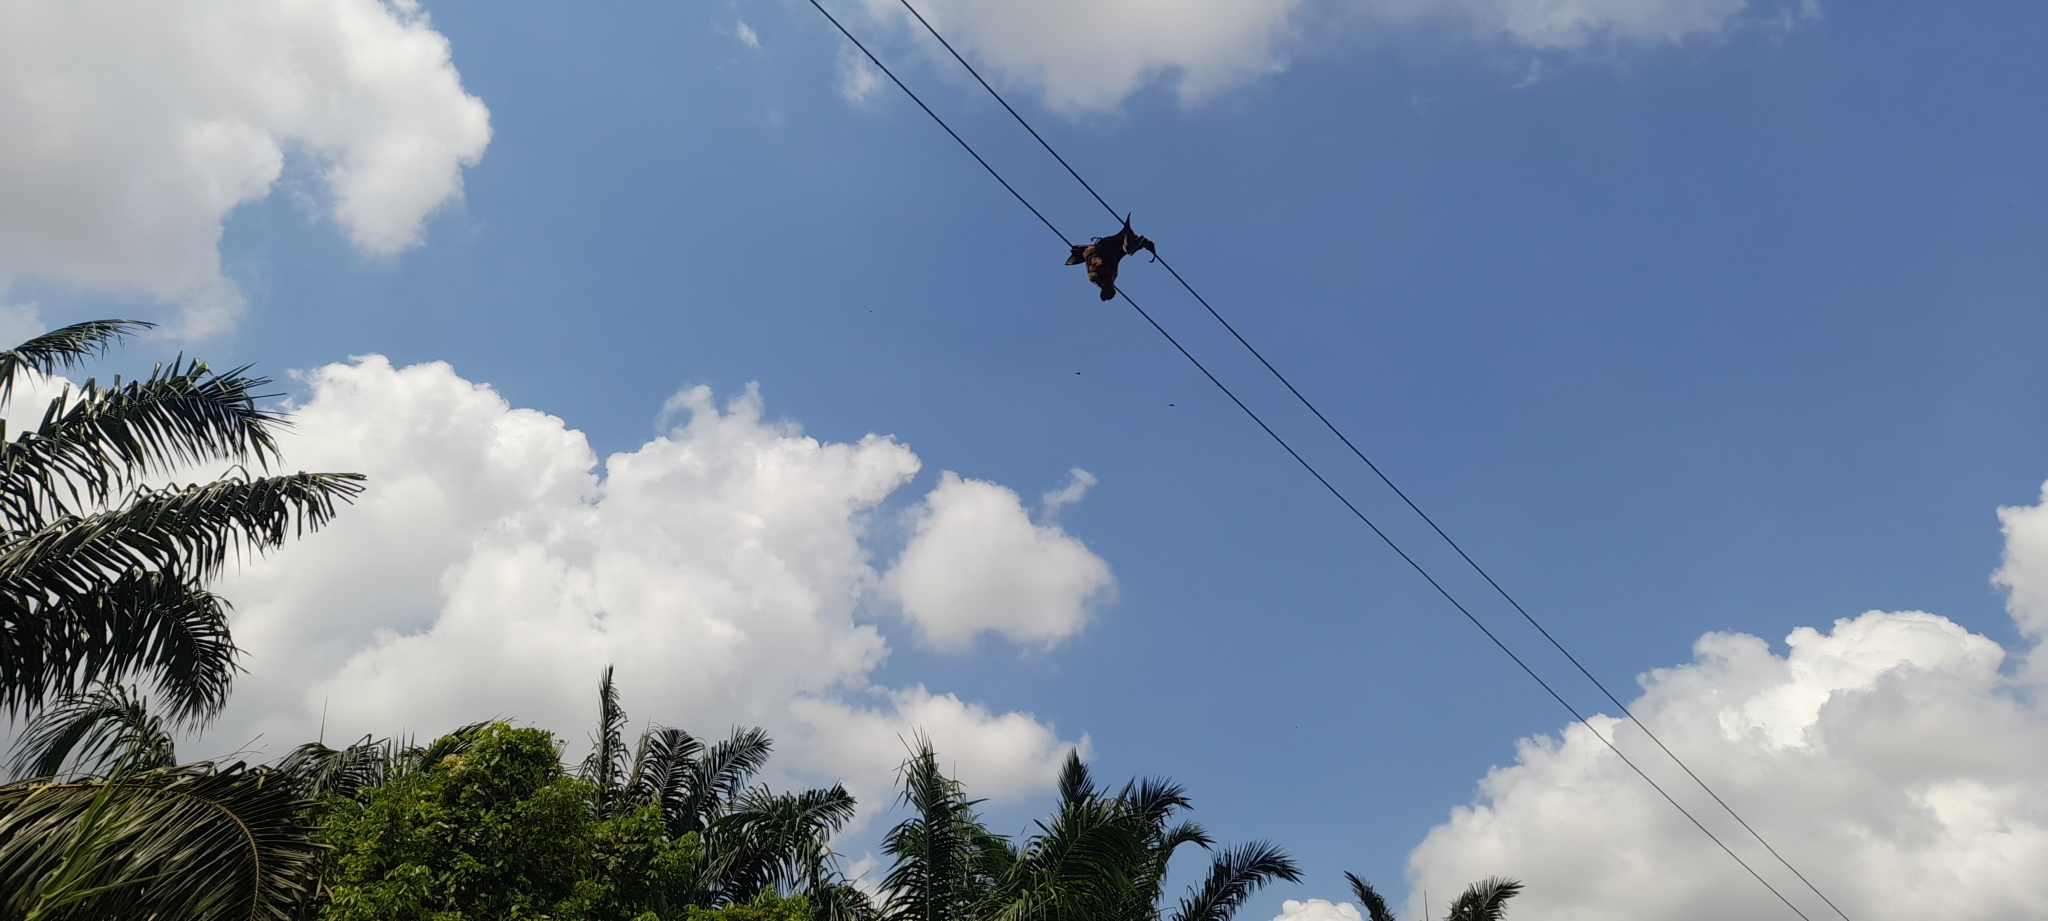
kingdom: Animalia
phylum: Chordata
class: Mammalia
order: Chiroptera
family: Pteropodidae
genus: Pteropus
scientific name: Pteropus vampyrus
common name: Large flying fox
